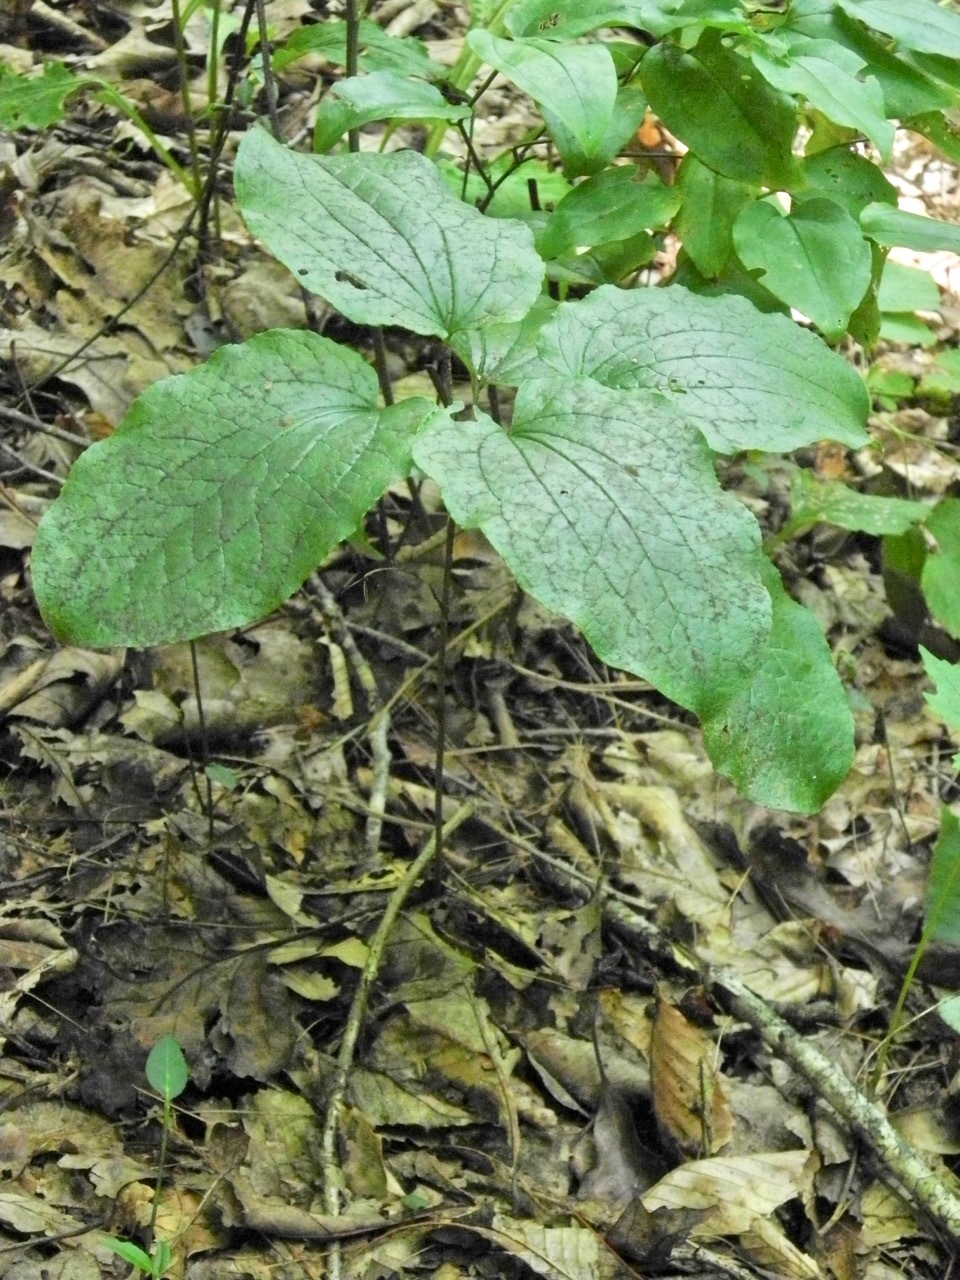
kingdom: Plantae
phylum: Tracheophyta
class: Liliopsida
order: Liliales
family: Smilacaceae
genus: Smilax
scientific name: Smilax hugeri
